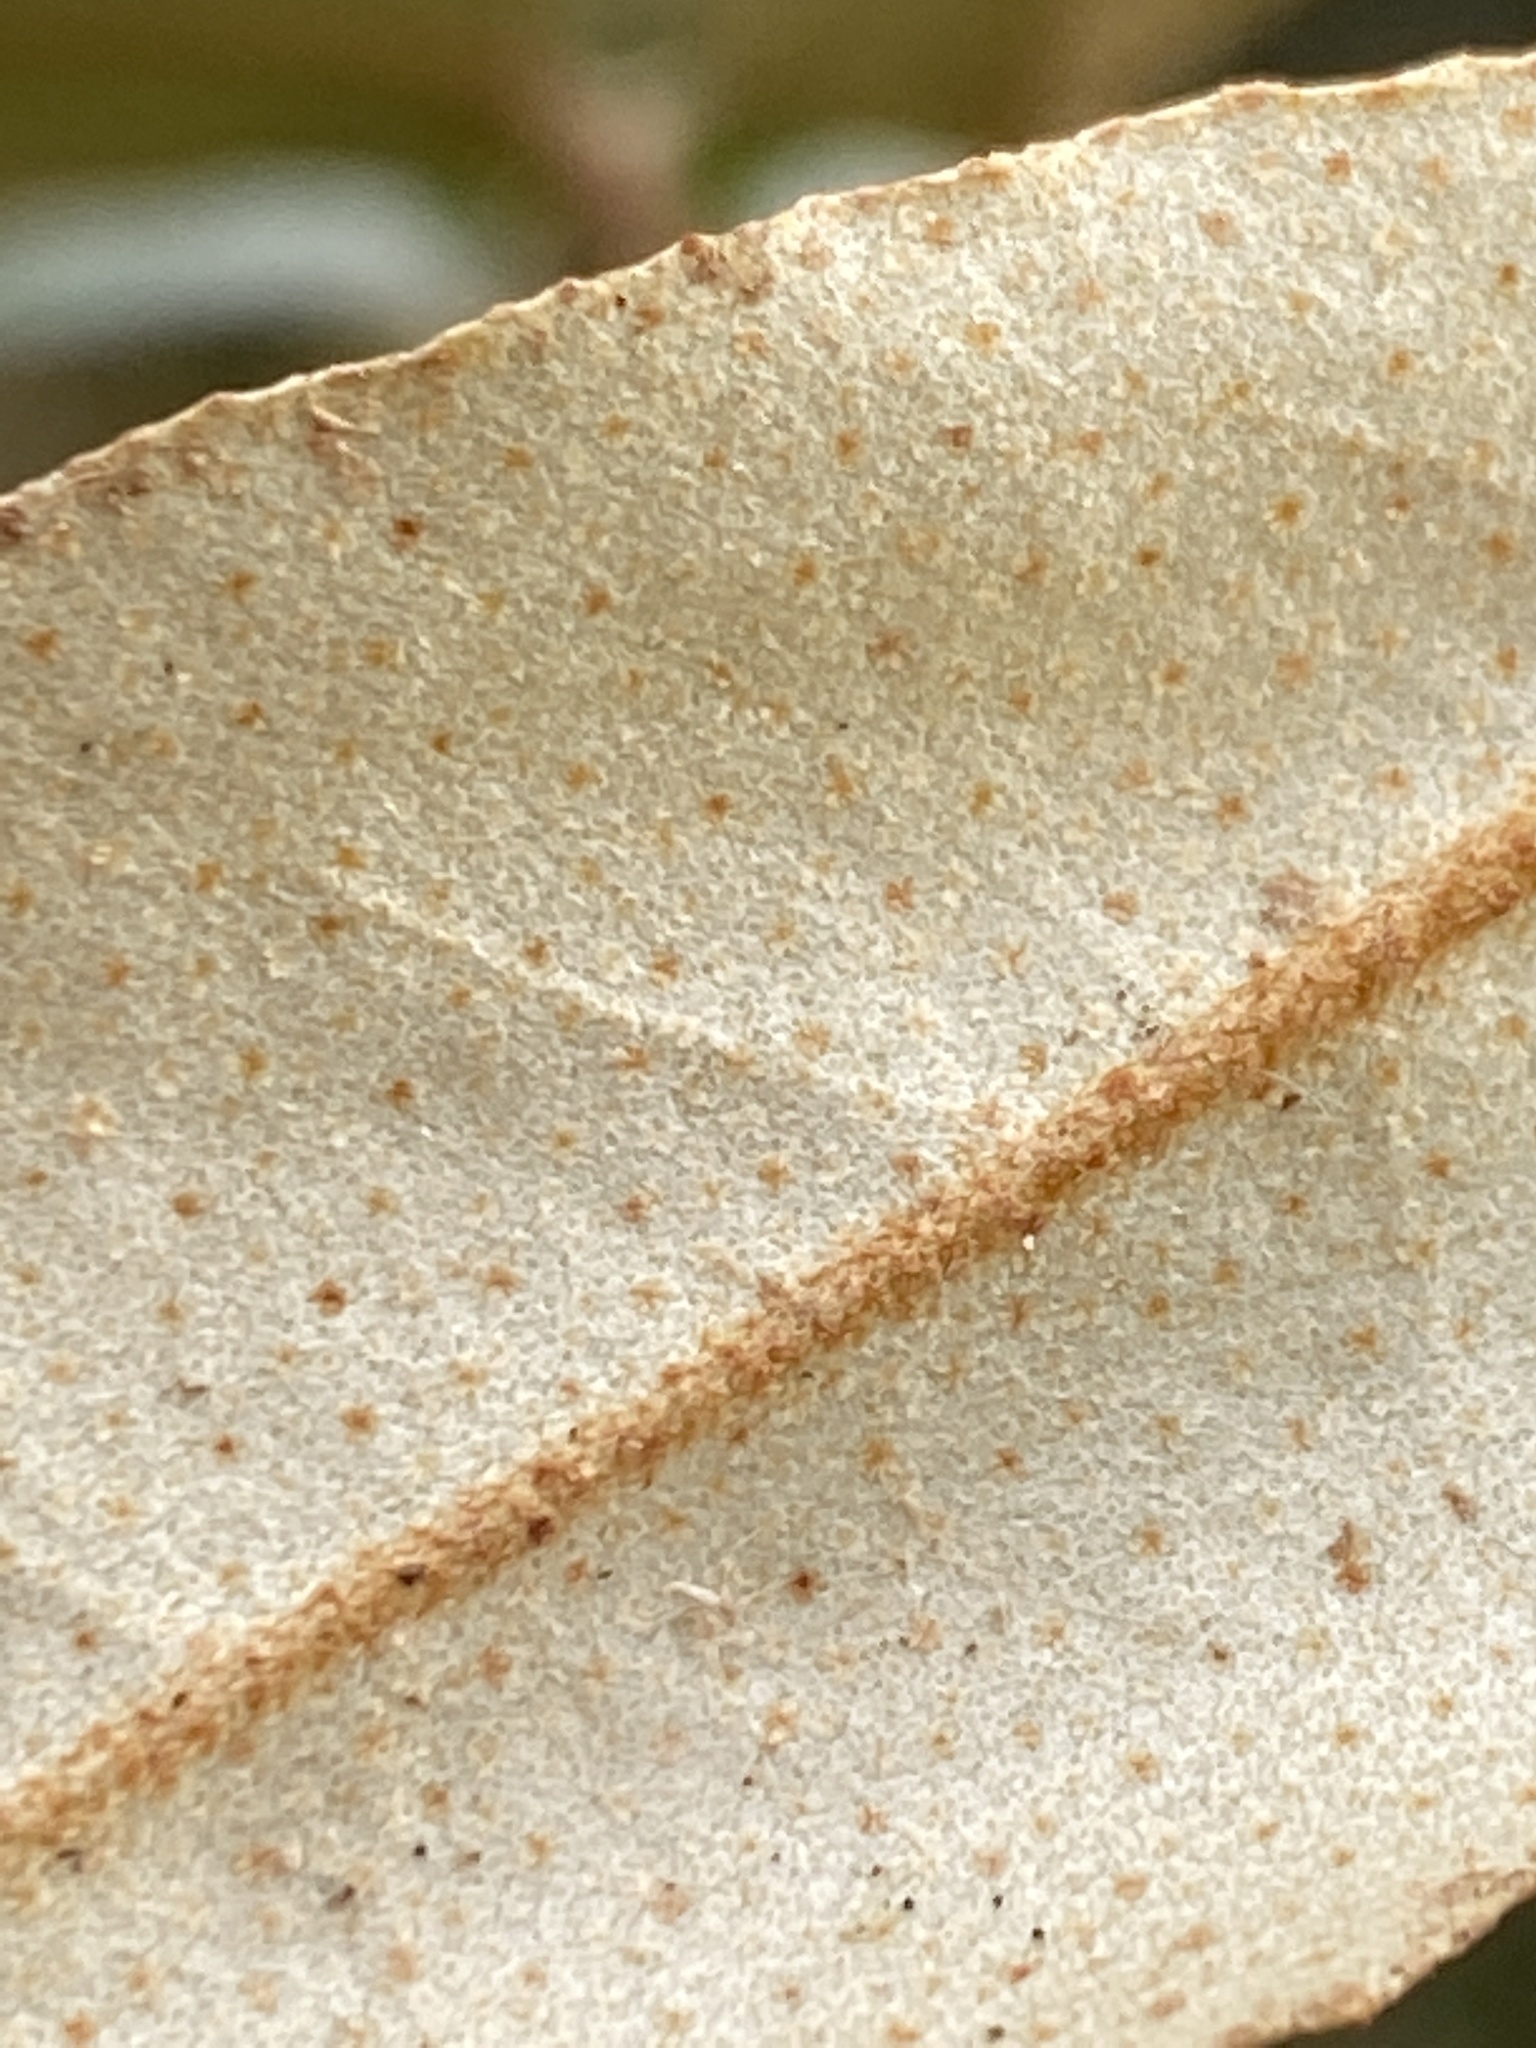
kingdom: Plantae
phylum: Tracheophyta
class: Magnoliopsida
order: Rosales
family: Elaeagnaceae
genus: Elaeagnus
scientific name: Elaeagnus pungens
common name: Spiny oleaster
